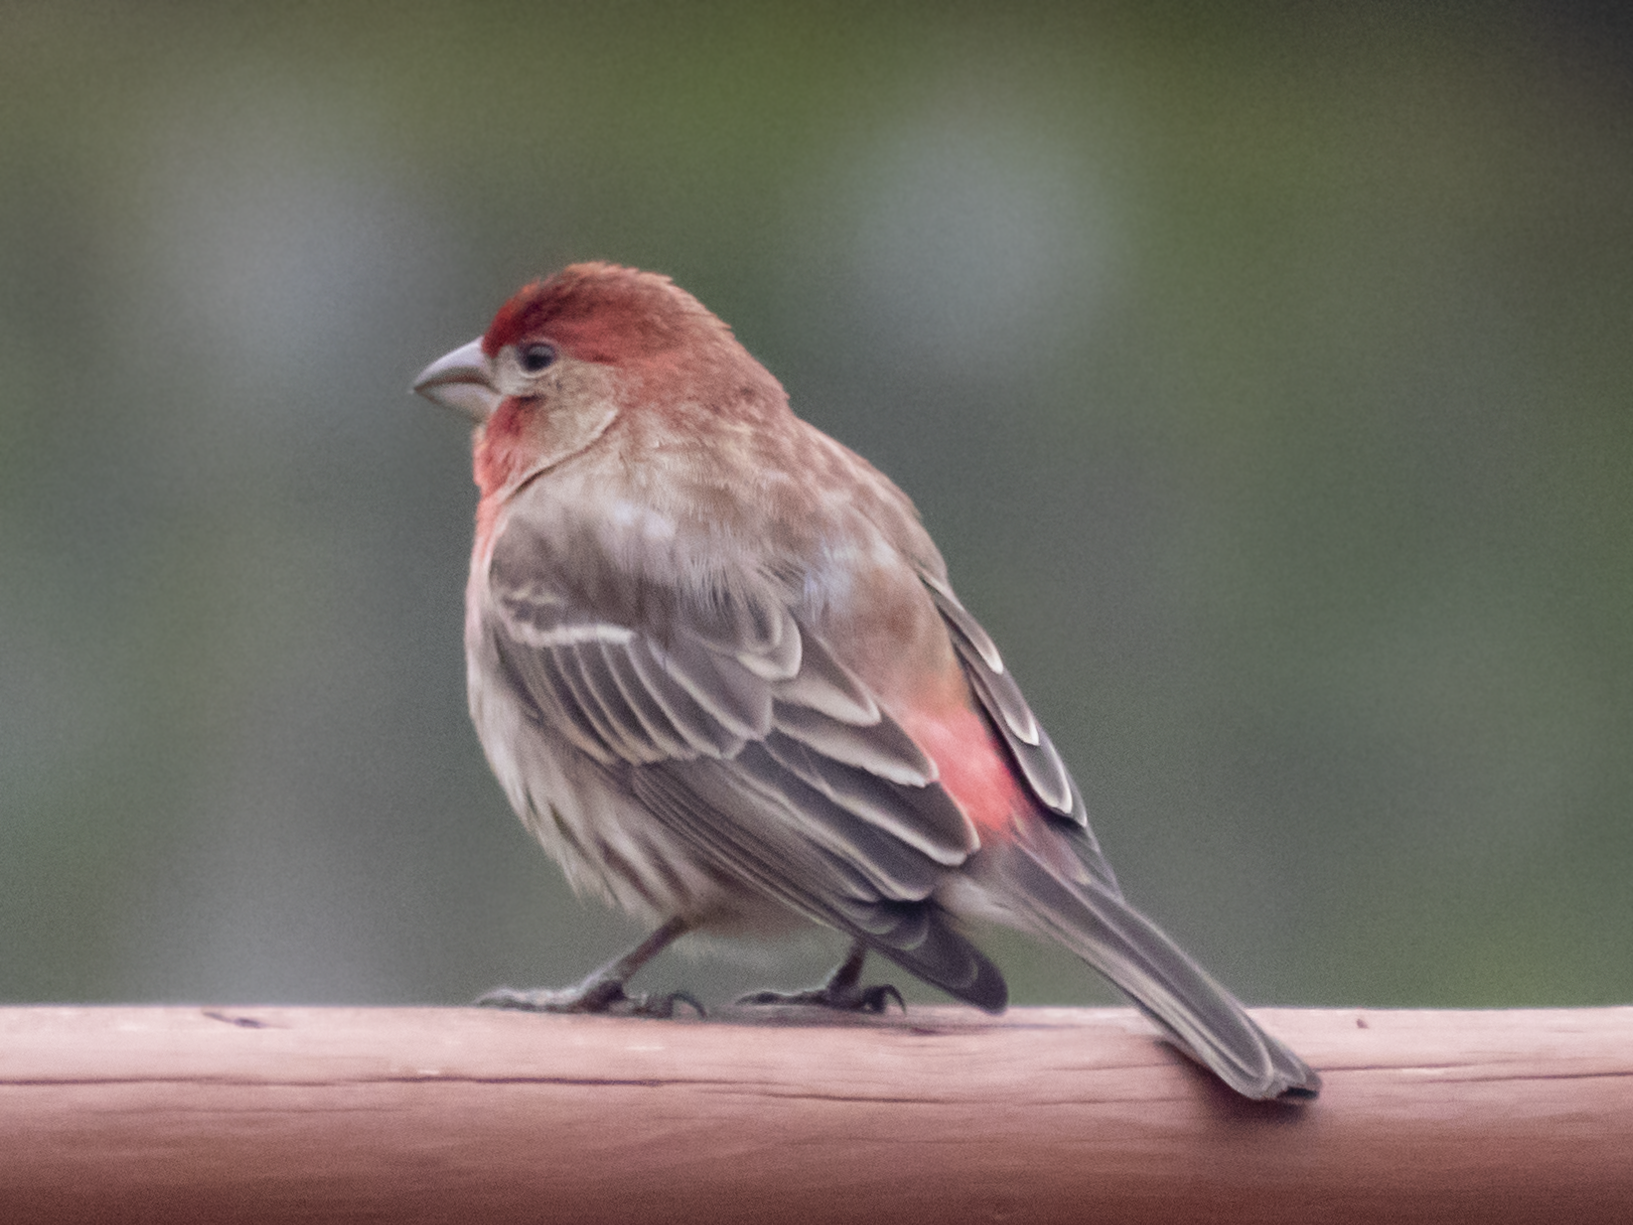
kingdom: Animalia
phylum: Chordata
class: Aves
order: Passeriformes
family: Fringillidae
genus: Haemorhous
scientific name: Haemorhous mexicanus
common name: House finch
